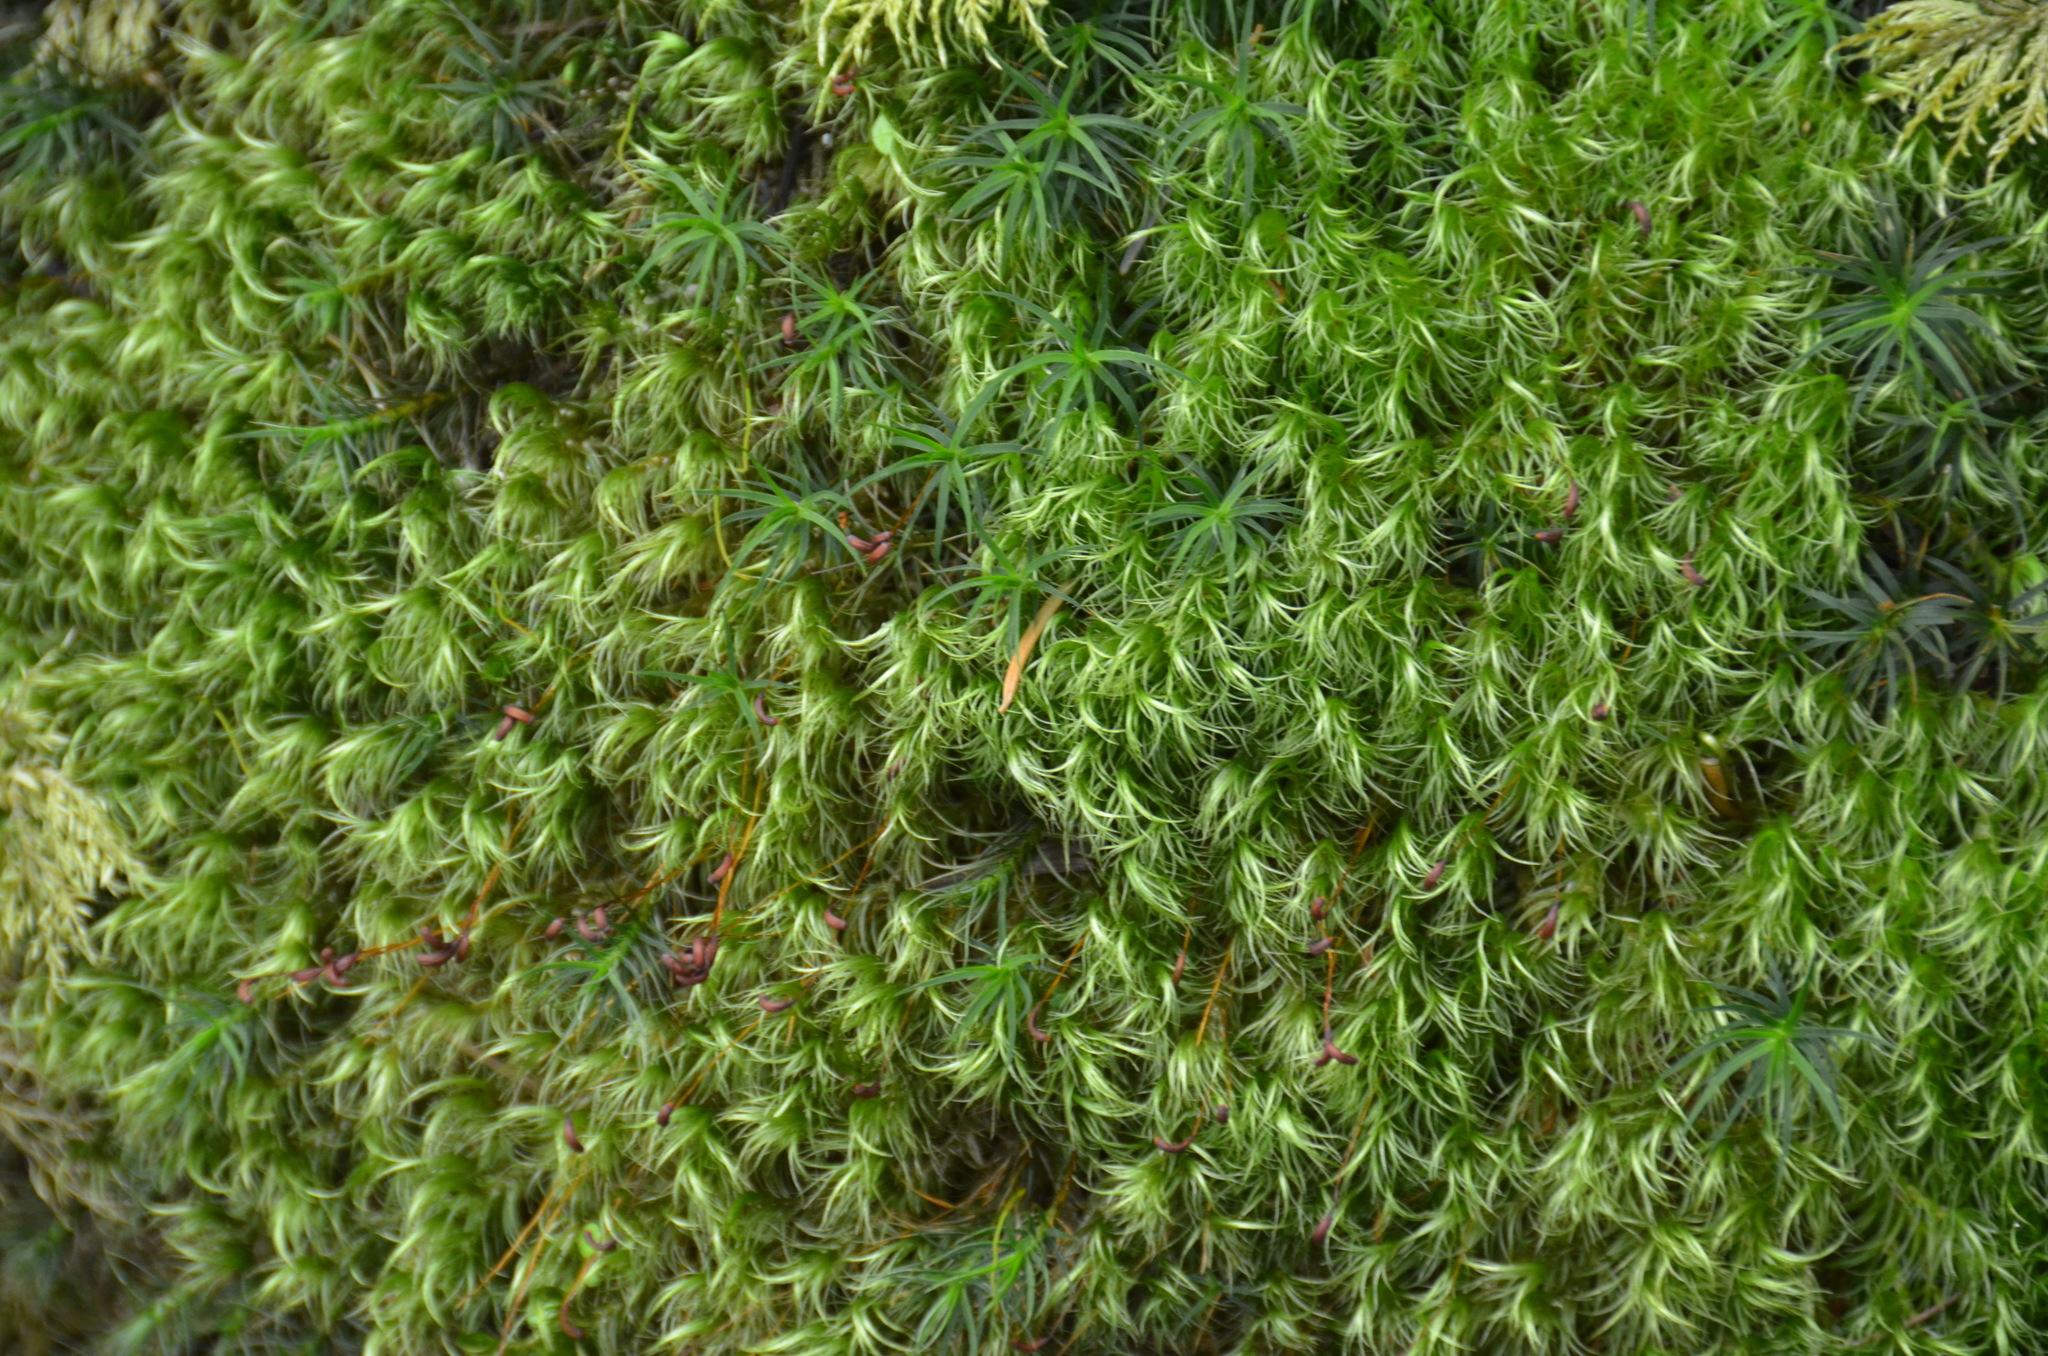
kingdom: Plantae
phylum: Bryophyta
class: Bryopsida
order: Dicranales
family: Dicranaceae
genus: Dicranum
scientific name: Dicranum fuscescens
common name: Curly heron's-bill moss
